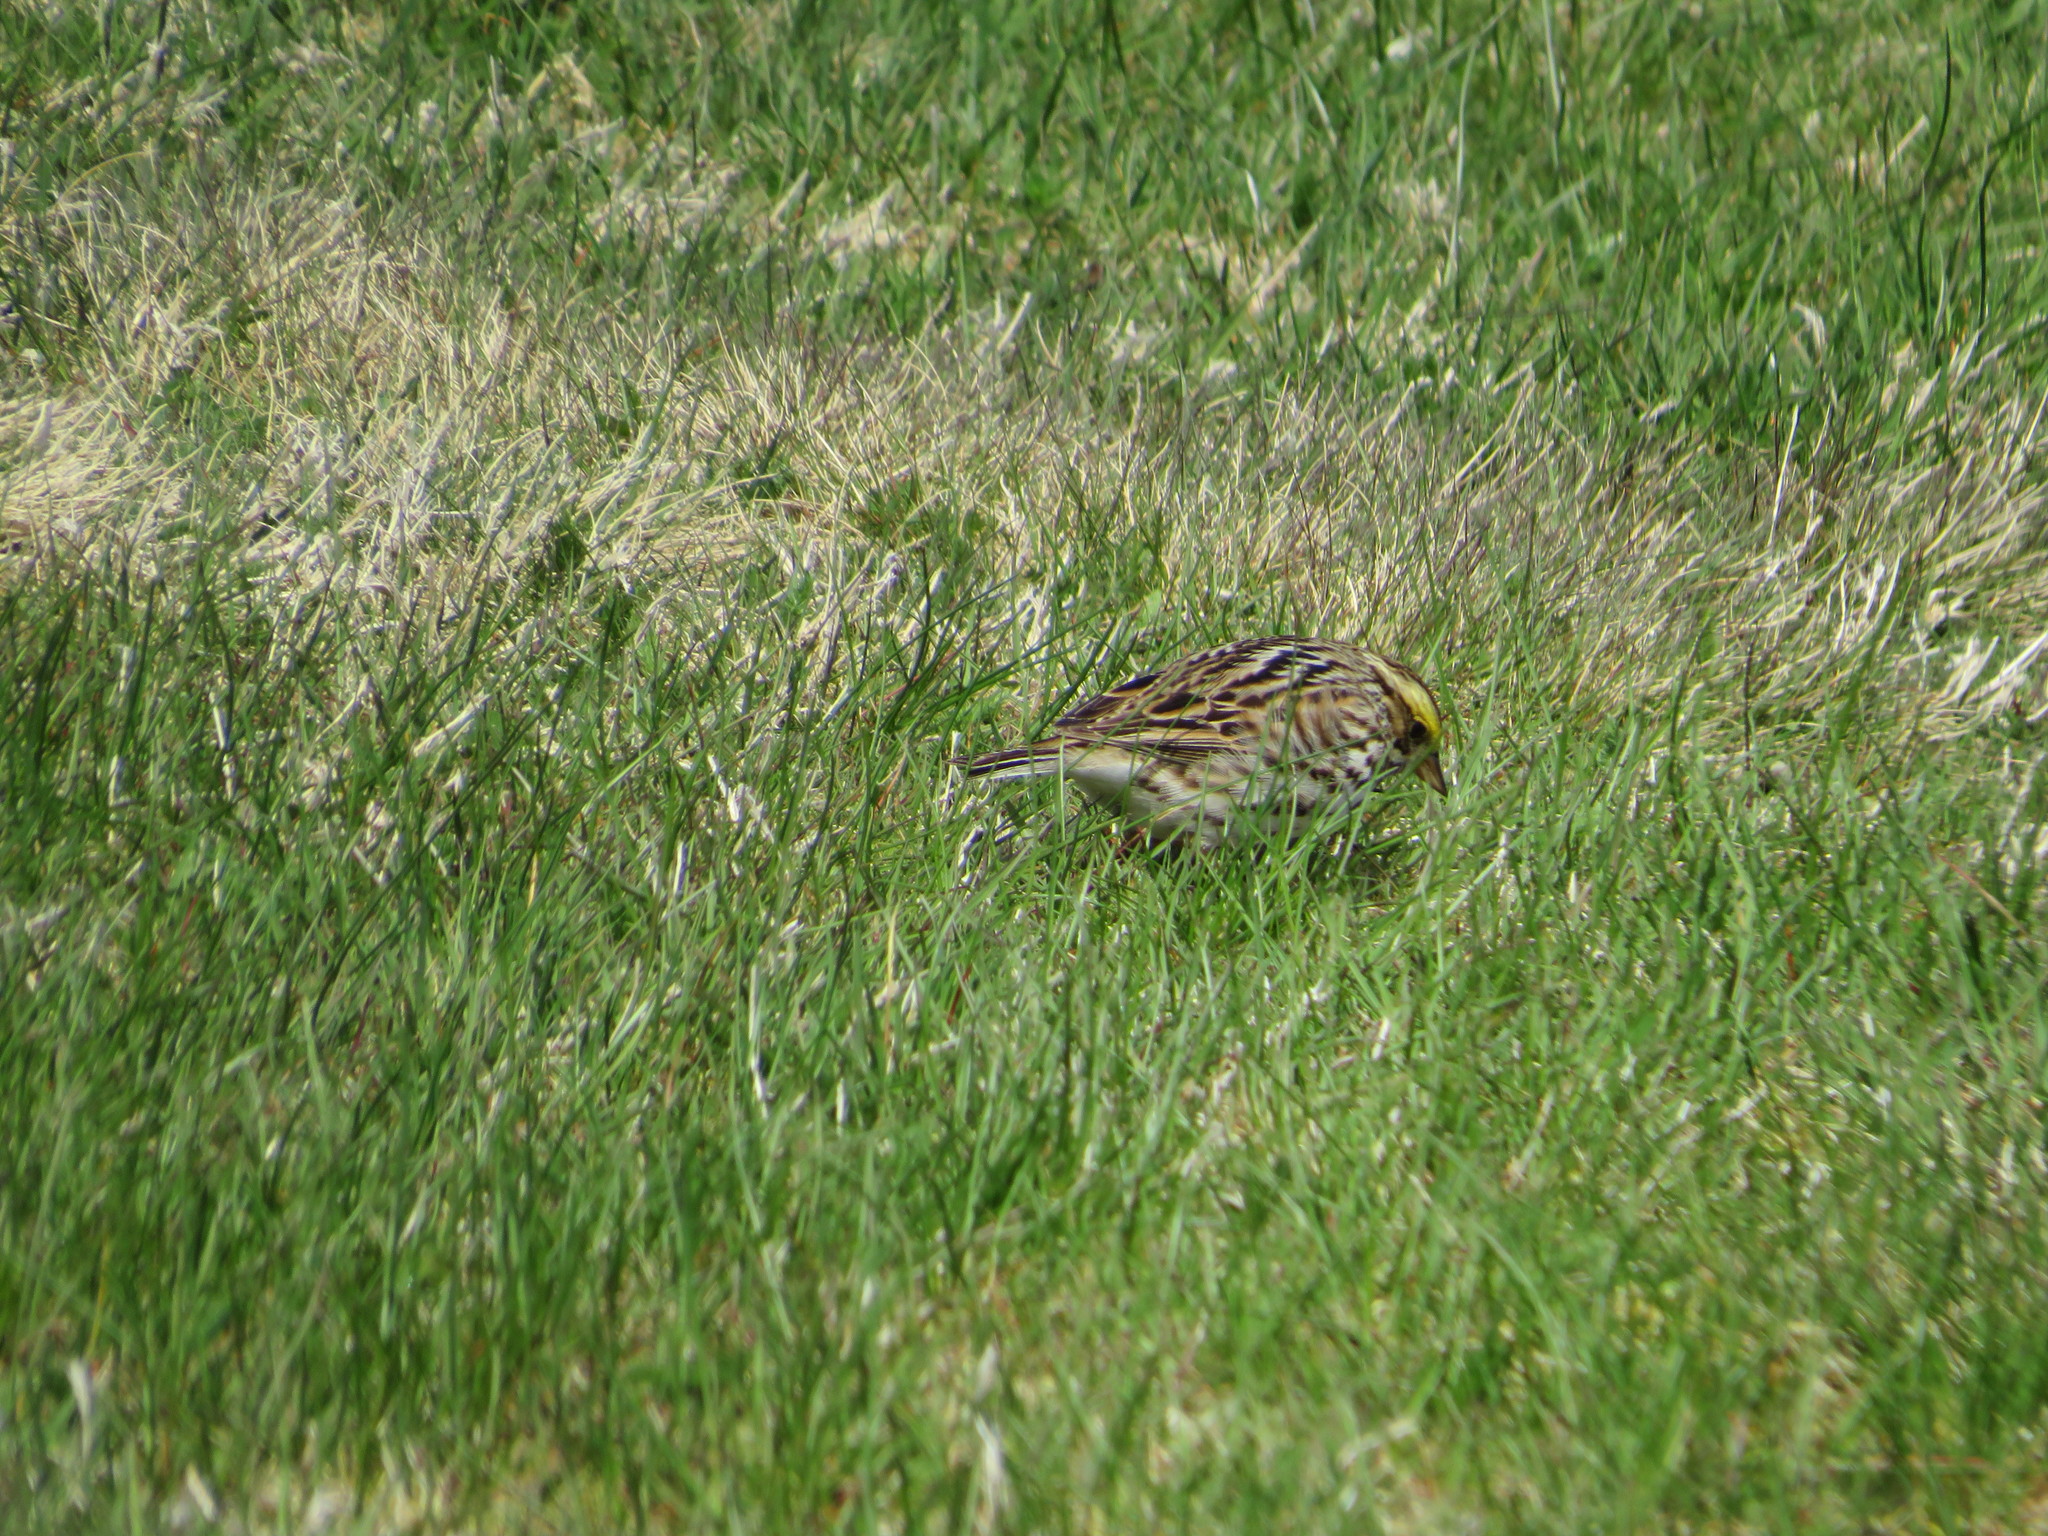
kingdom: Animalia
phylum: Chordata
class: Aves
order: Passeriformes
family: Passerellidae
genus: Passerculus
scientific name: Passerculus sandwichensis
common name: Savannah sparrow
